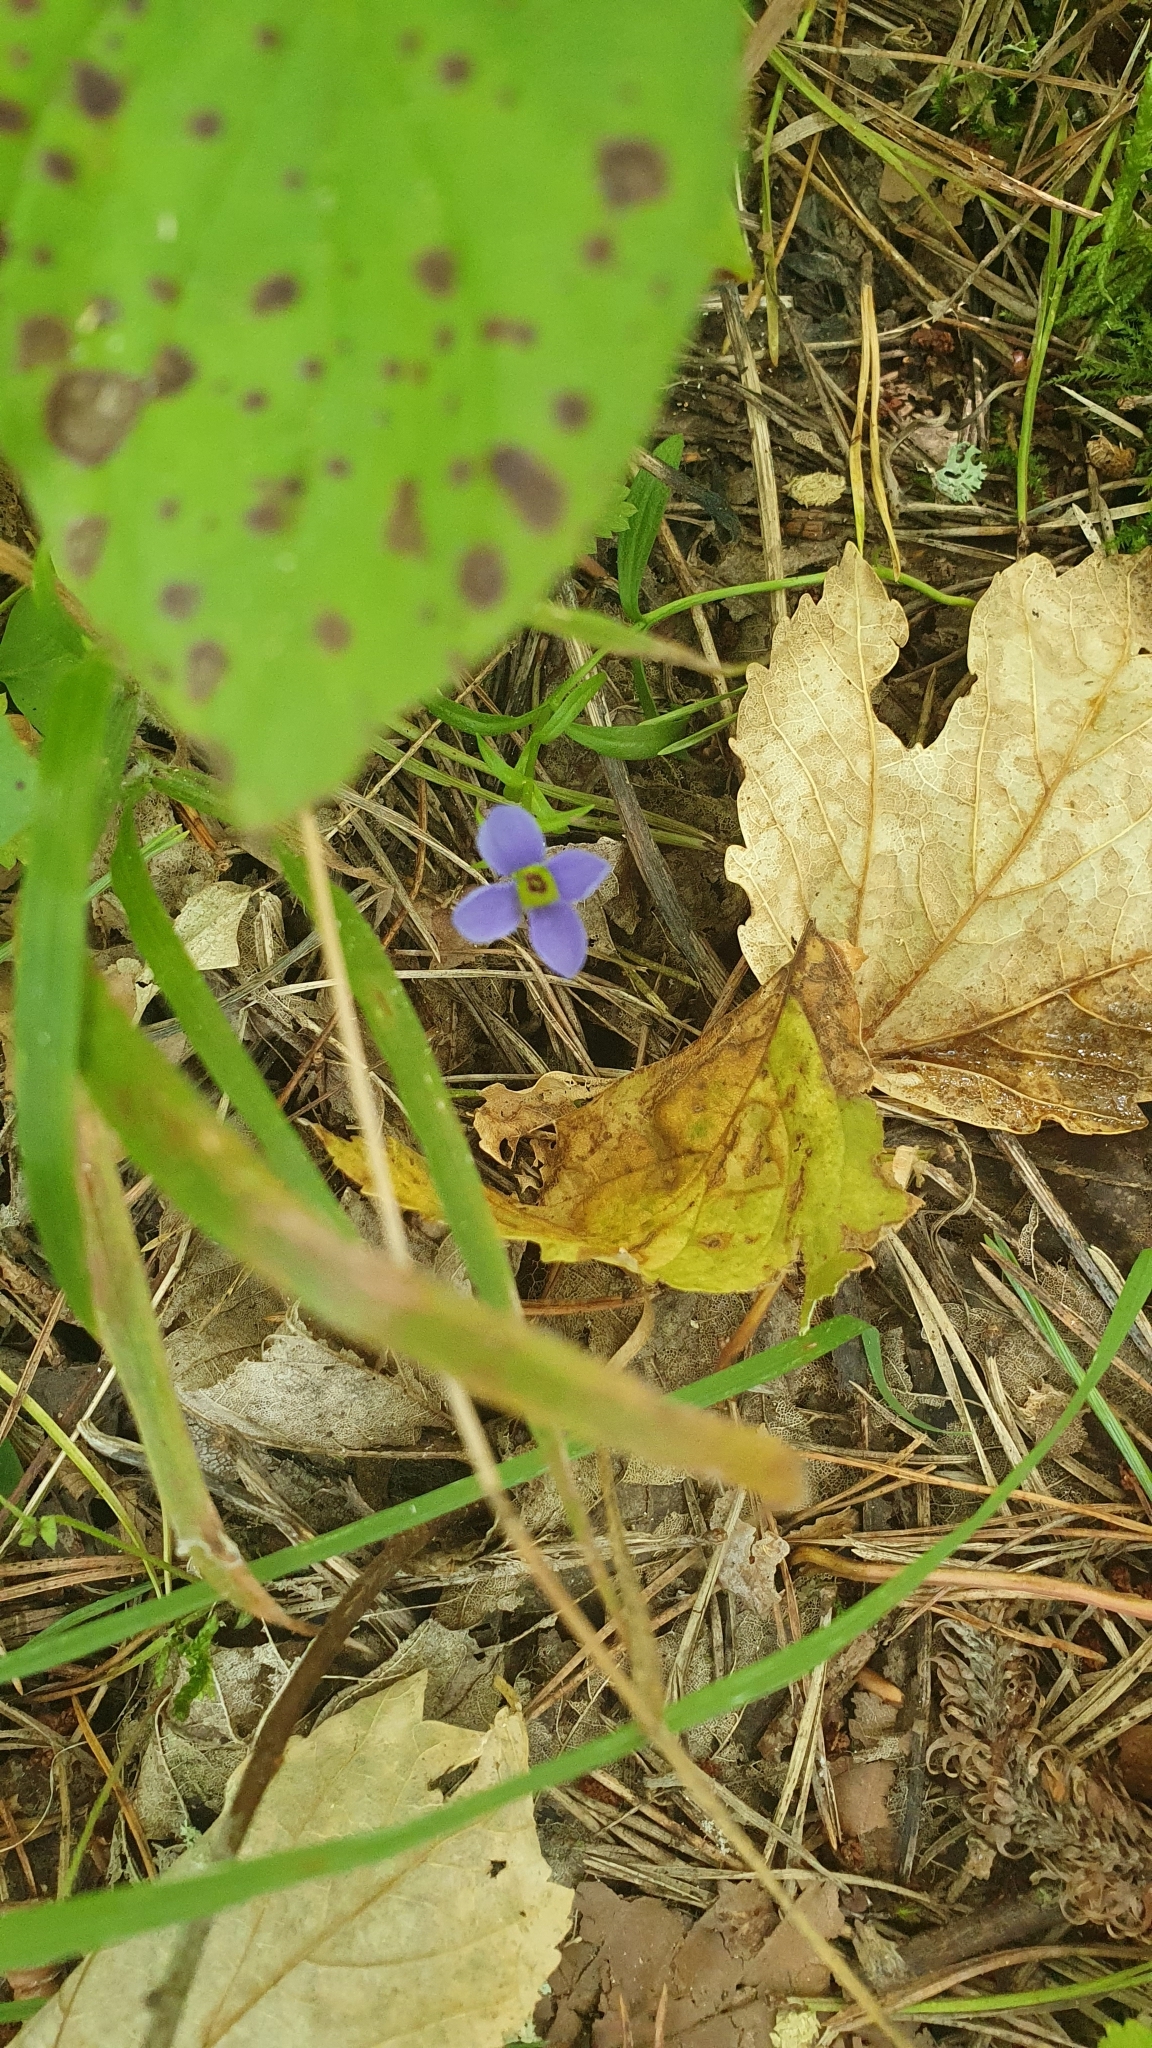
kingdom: Plantae
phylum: Tracheophyta
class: Magnoliopsida
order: Gentianales
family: Gentianaceae
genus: Gentianopsis
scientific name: Gentianopsis ciliata
